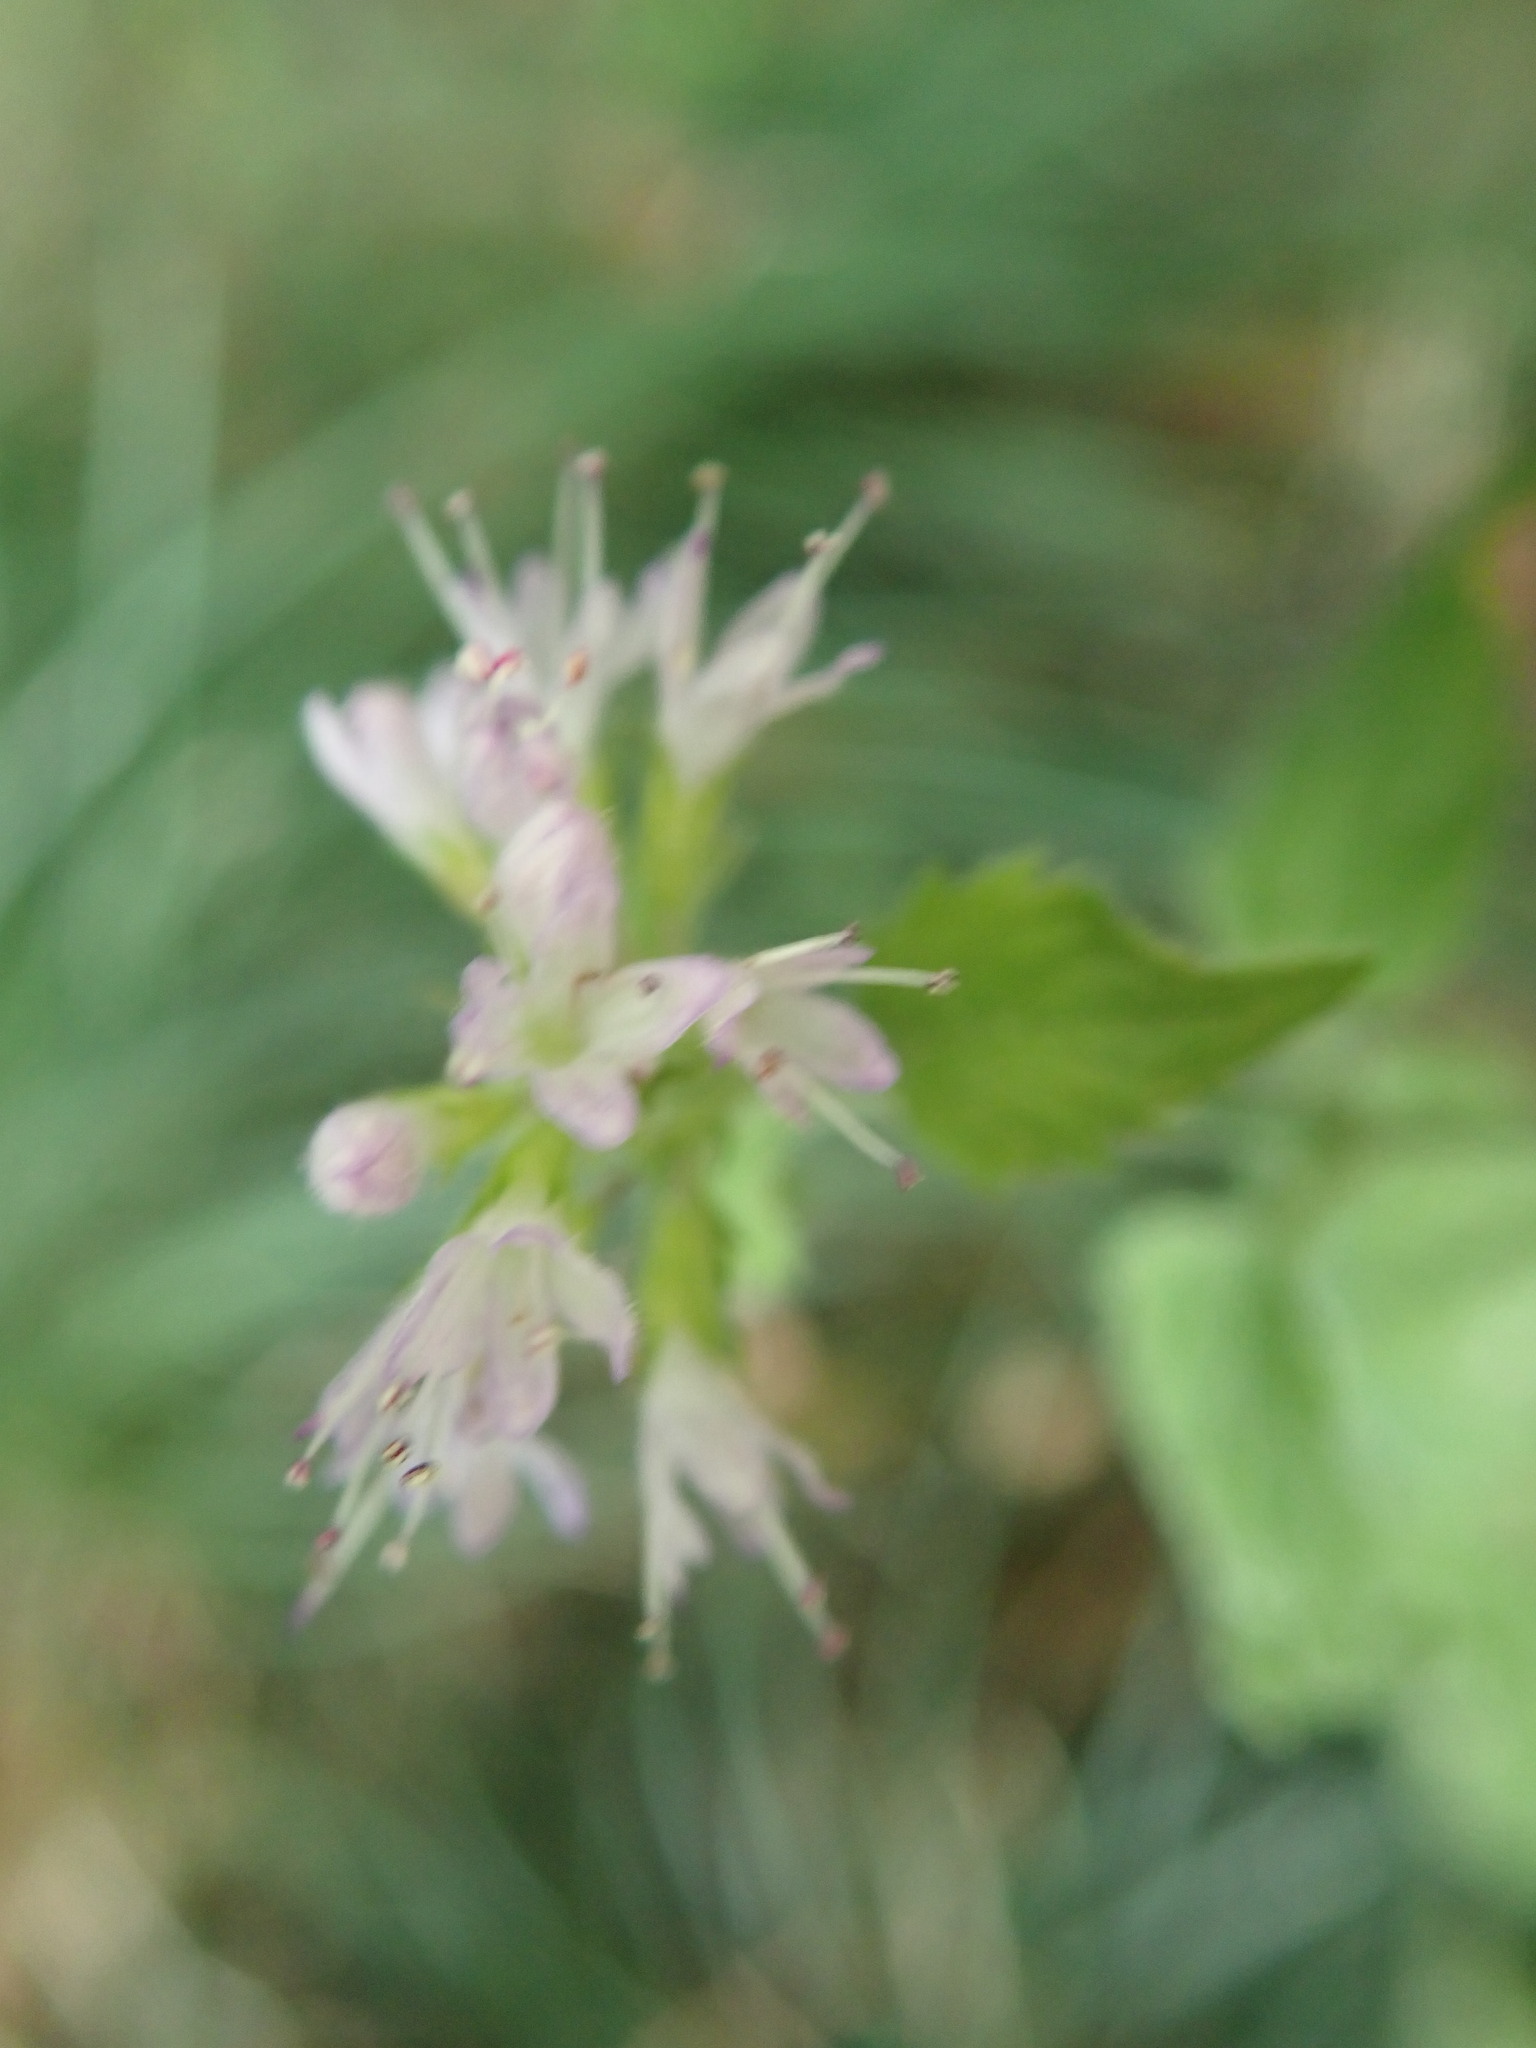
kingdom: Plantae
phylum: Tracheophyta
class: Magnoliopsida
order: Lamiales
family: Lamiaceae
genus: Mentha
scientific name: Mentha aquatica
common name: Water mint
